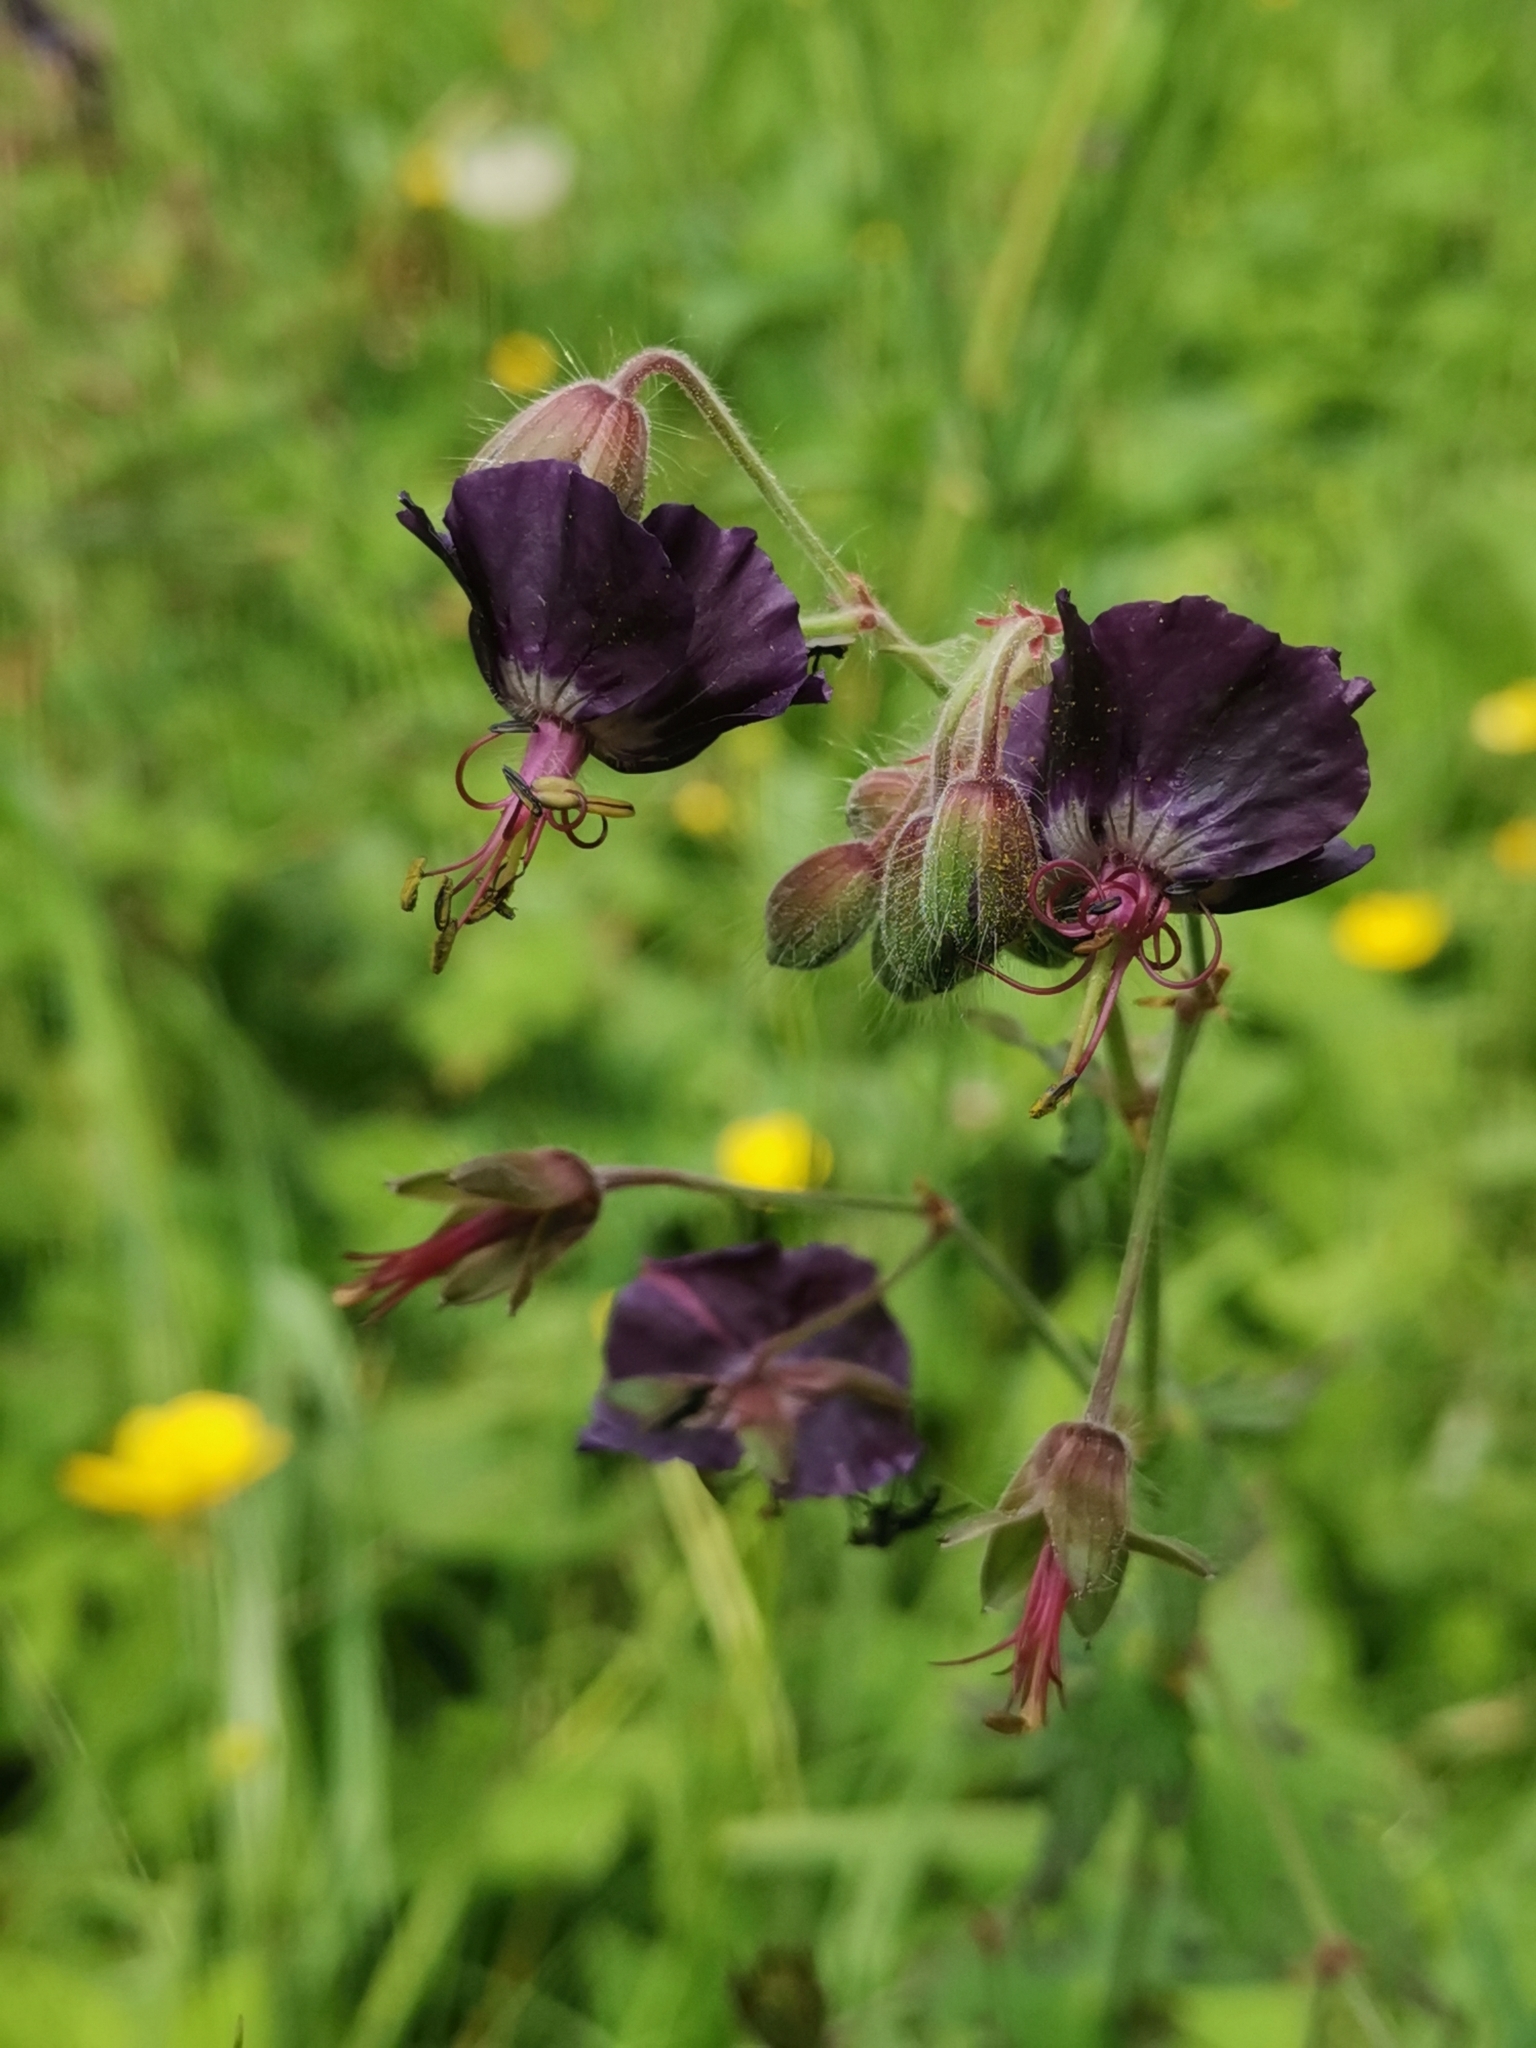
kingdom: Plantae
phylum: Tracheophyta
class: Magnoliopsida
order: Geraniales
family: Geraniaceae
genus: Geranium
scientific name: Geranium phaeum
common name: Dusky crane's-bill
